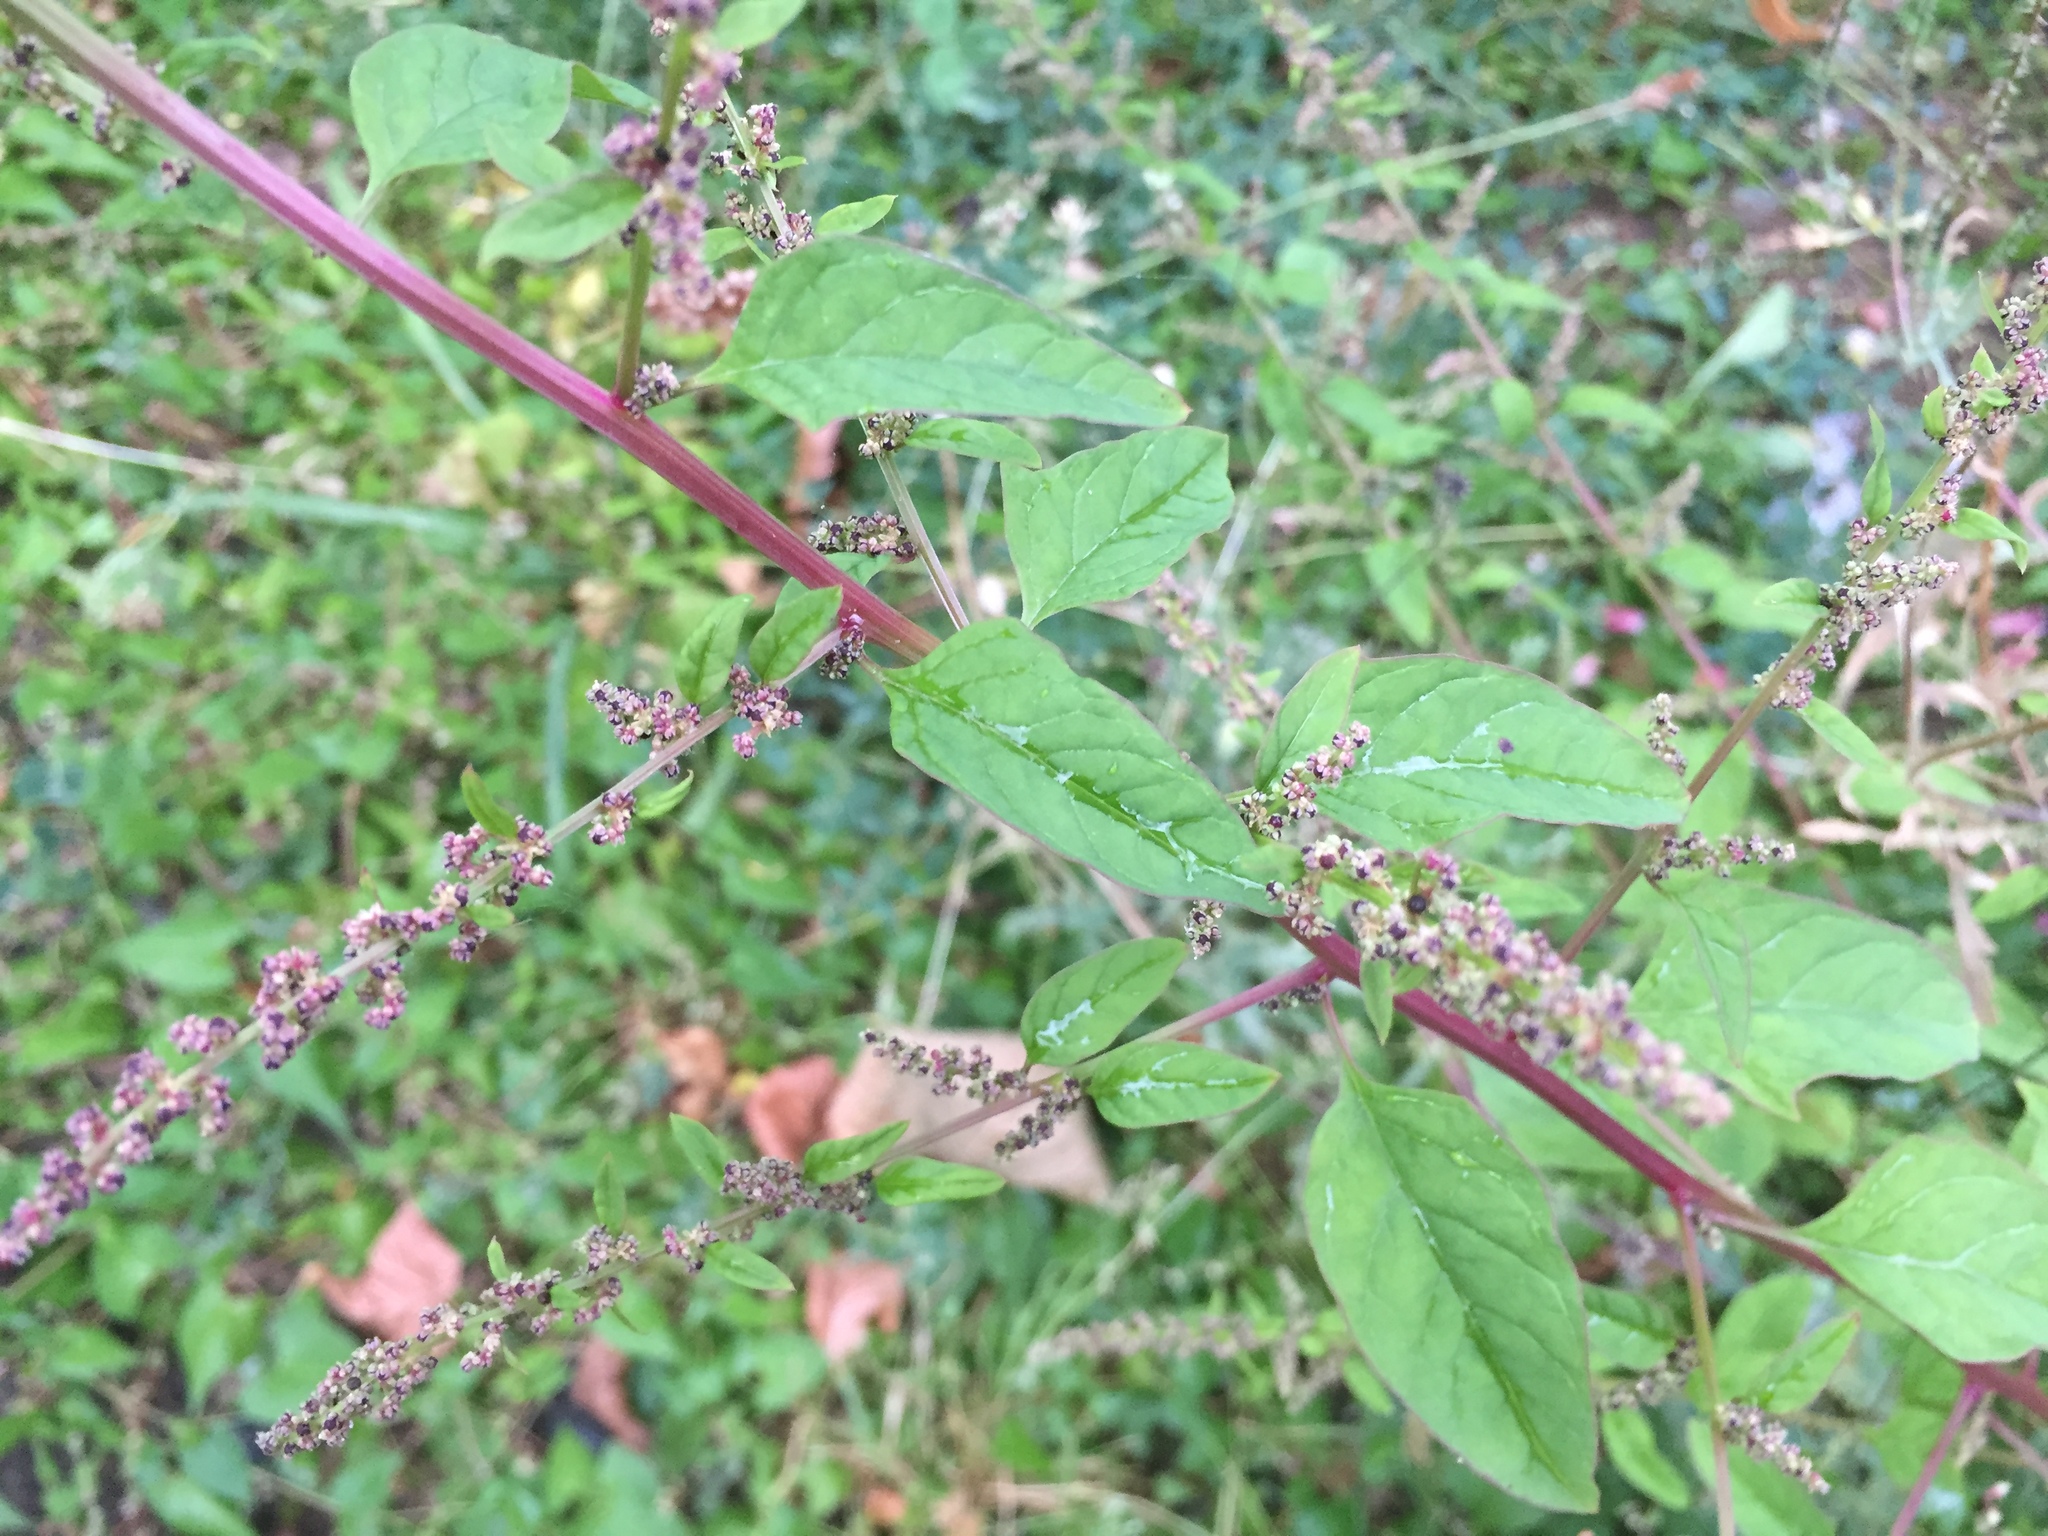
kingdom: Plantae
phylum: Tracheophyta
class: Magnoliopsida
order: Caryophyllales
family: Amaranthaceae
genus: Lipandra
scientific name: Lipandra polysperma
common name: Many-seed goosefoot
